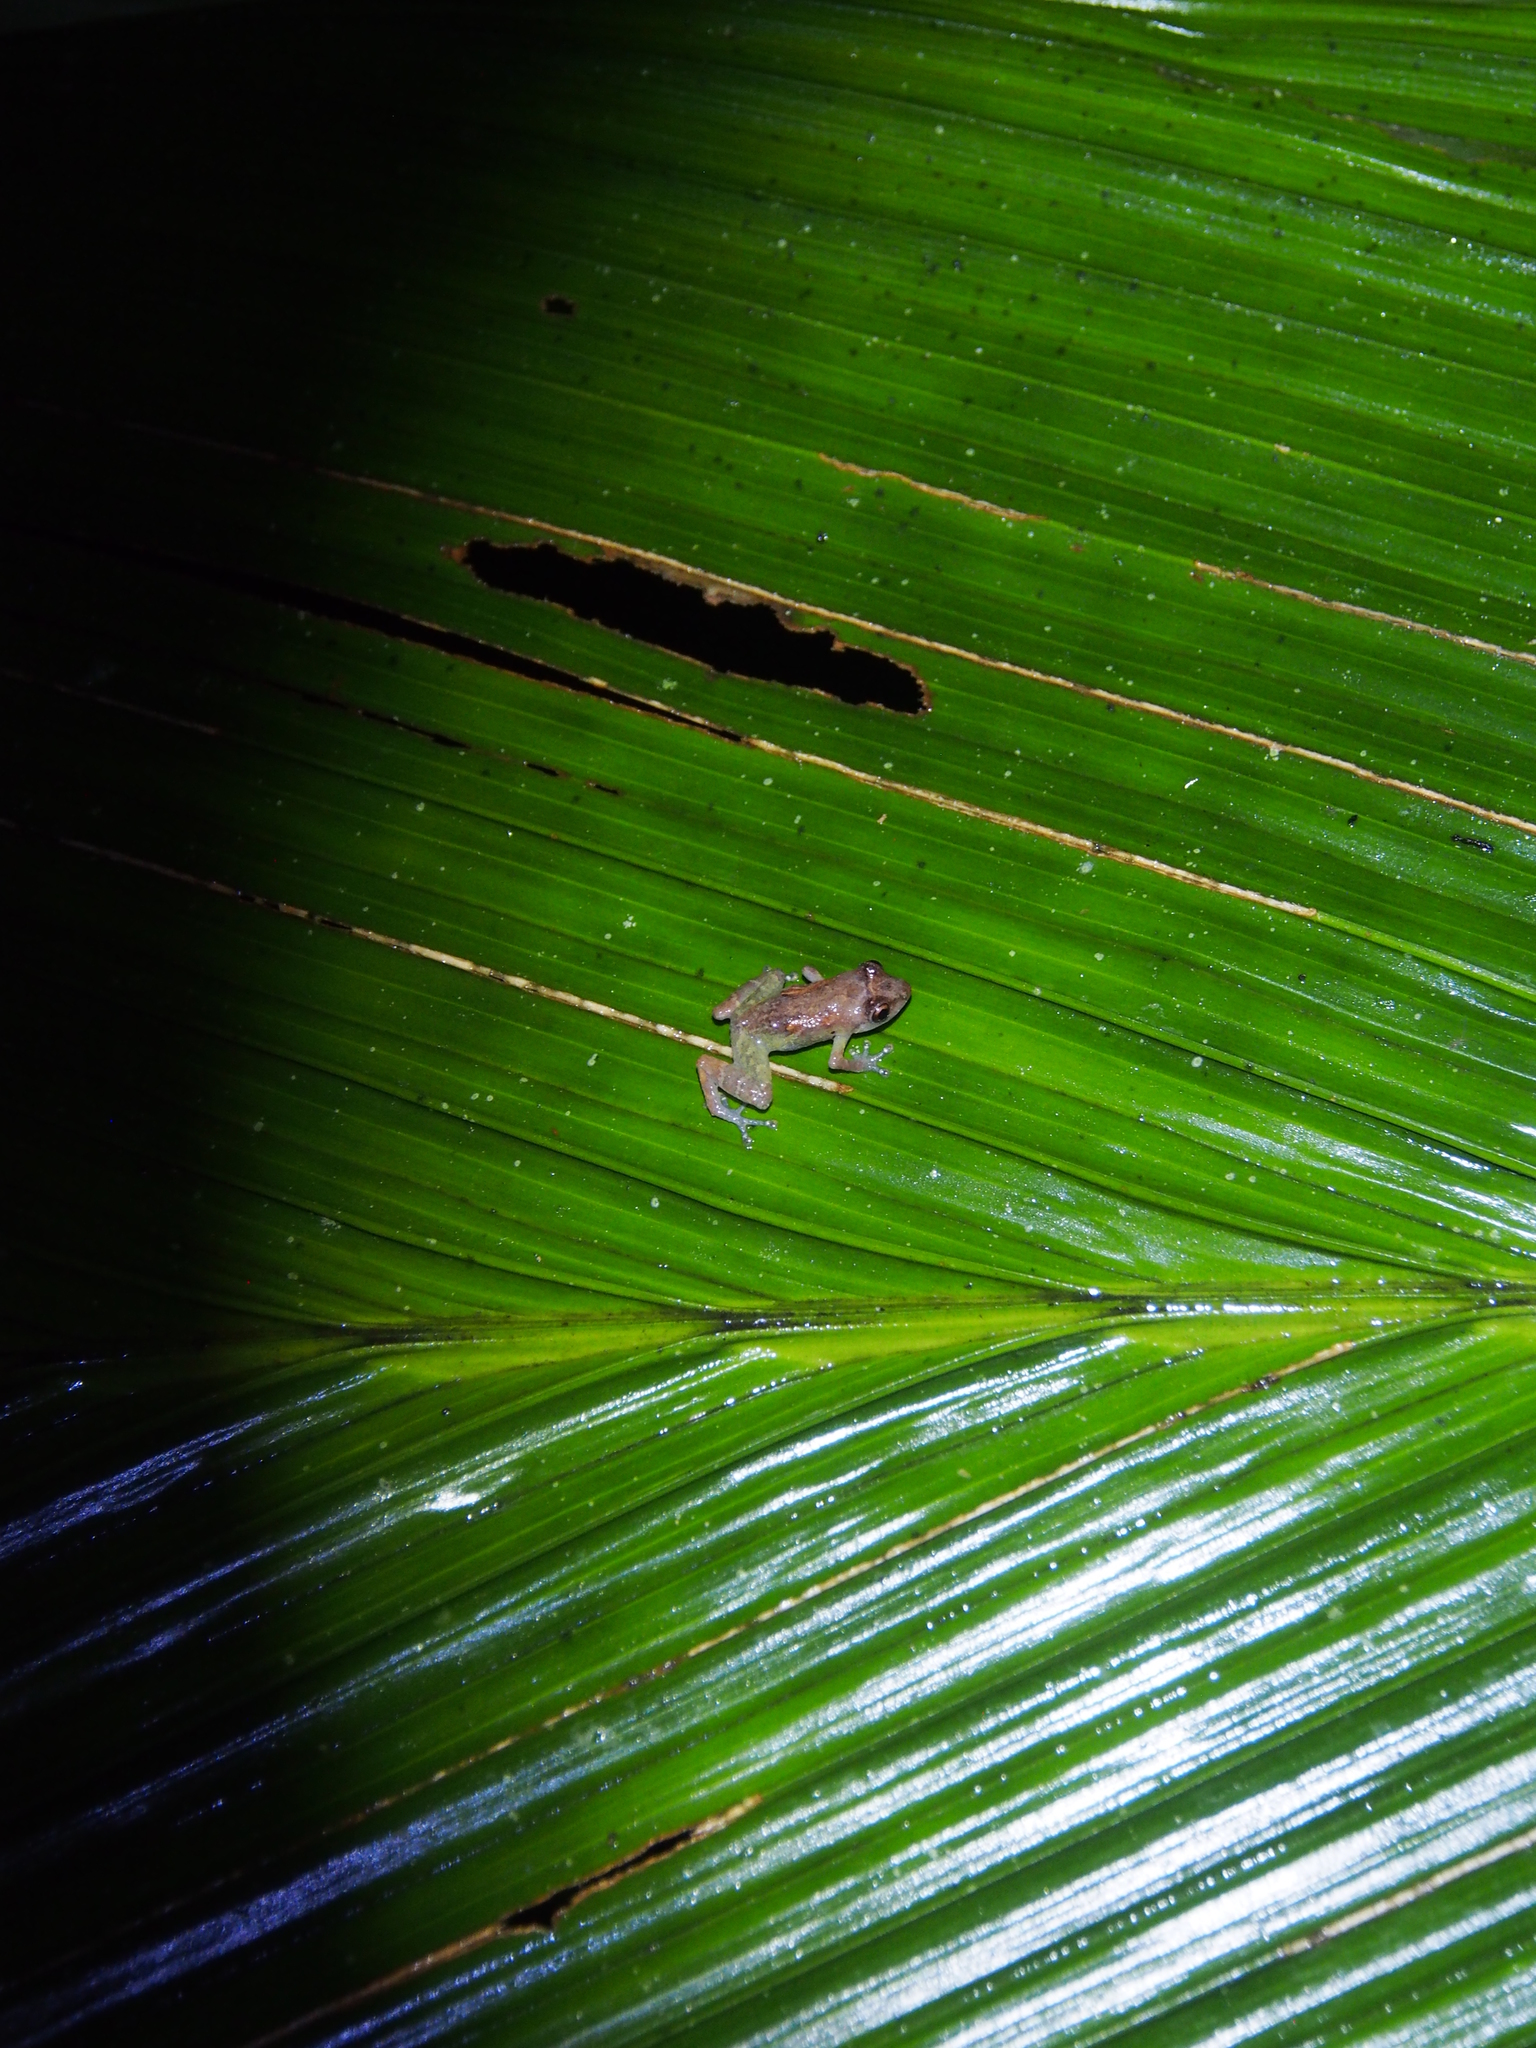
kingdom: Animalia
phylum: Chordata
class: Amphibia
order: Anura
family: Eleutherodactylidae
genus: Diasporus
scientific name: Diasporus diastema
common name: Caretta robber frog
